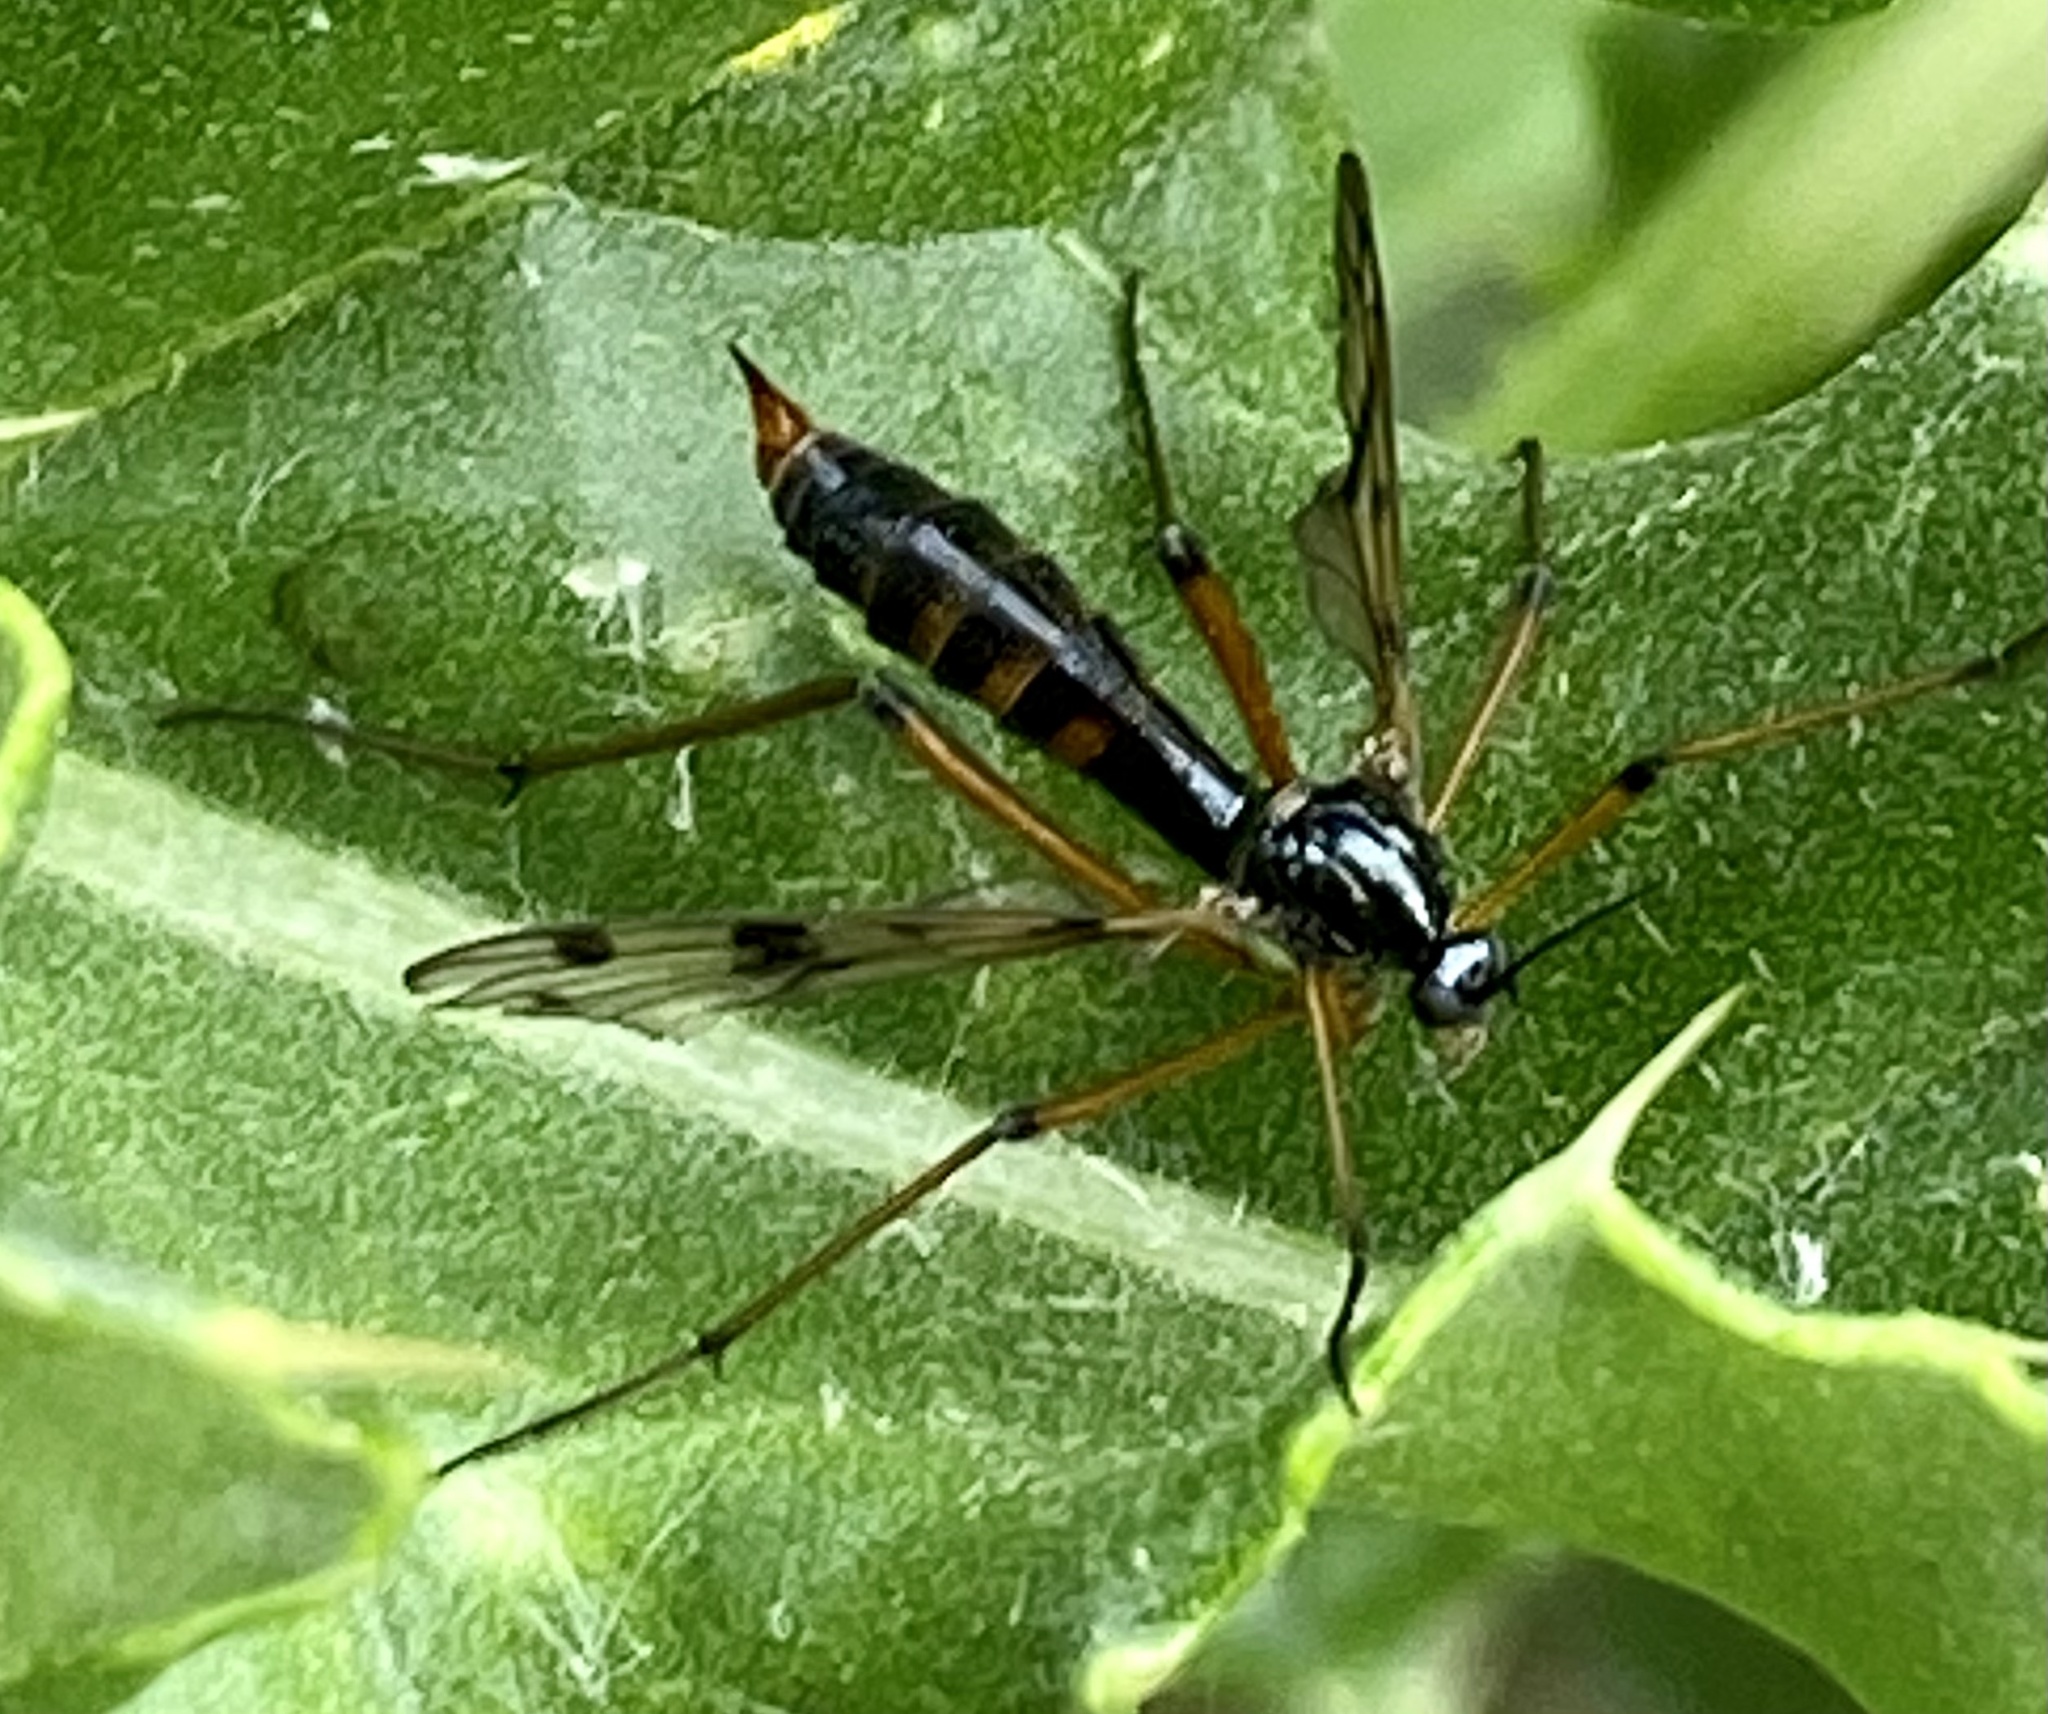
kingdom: Animalia
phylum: Arthropoda
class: Insecta
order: Diptera
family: Ptychopteridae
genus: Ptychoptera
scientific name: Ptychoptera contaminata
